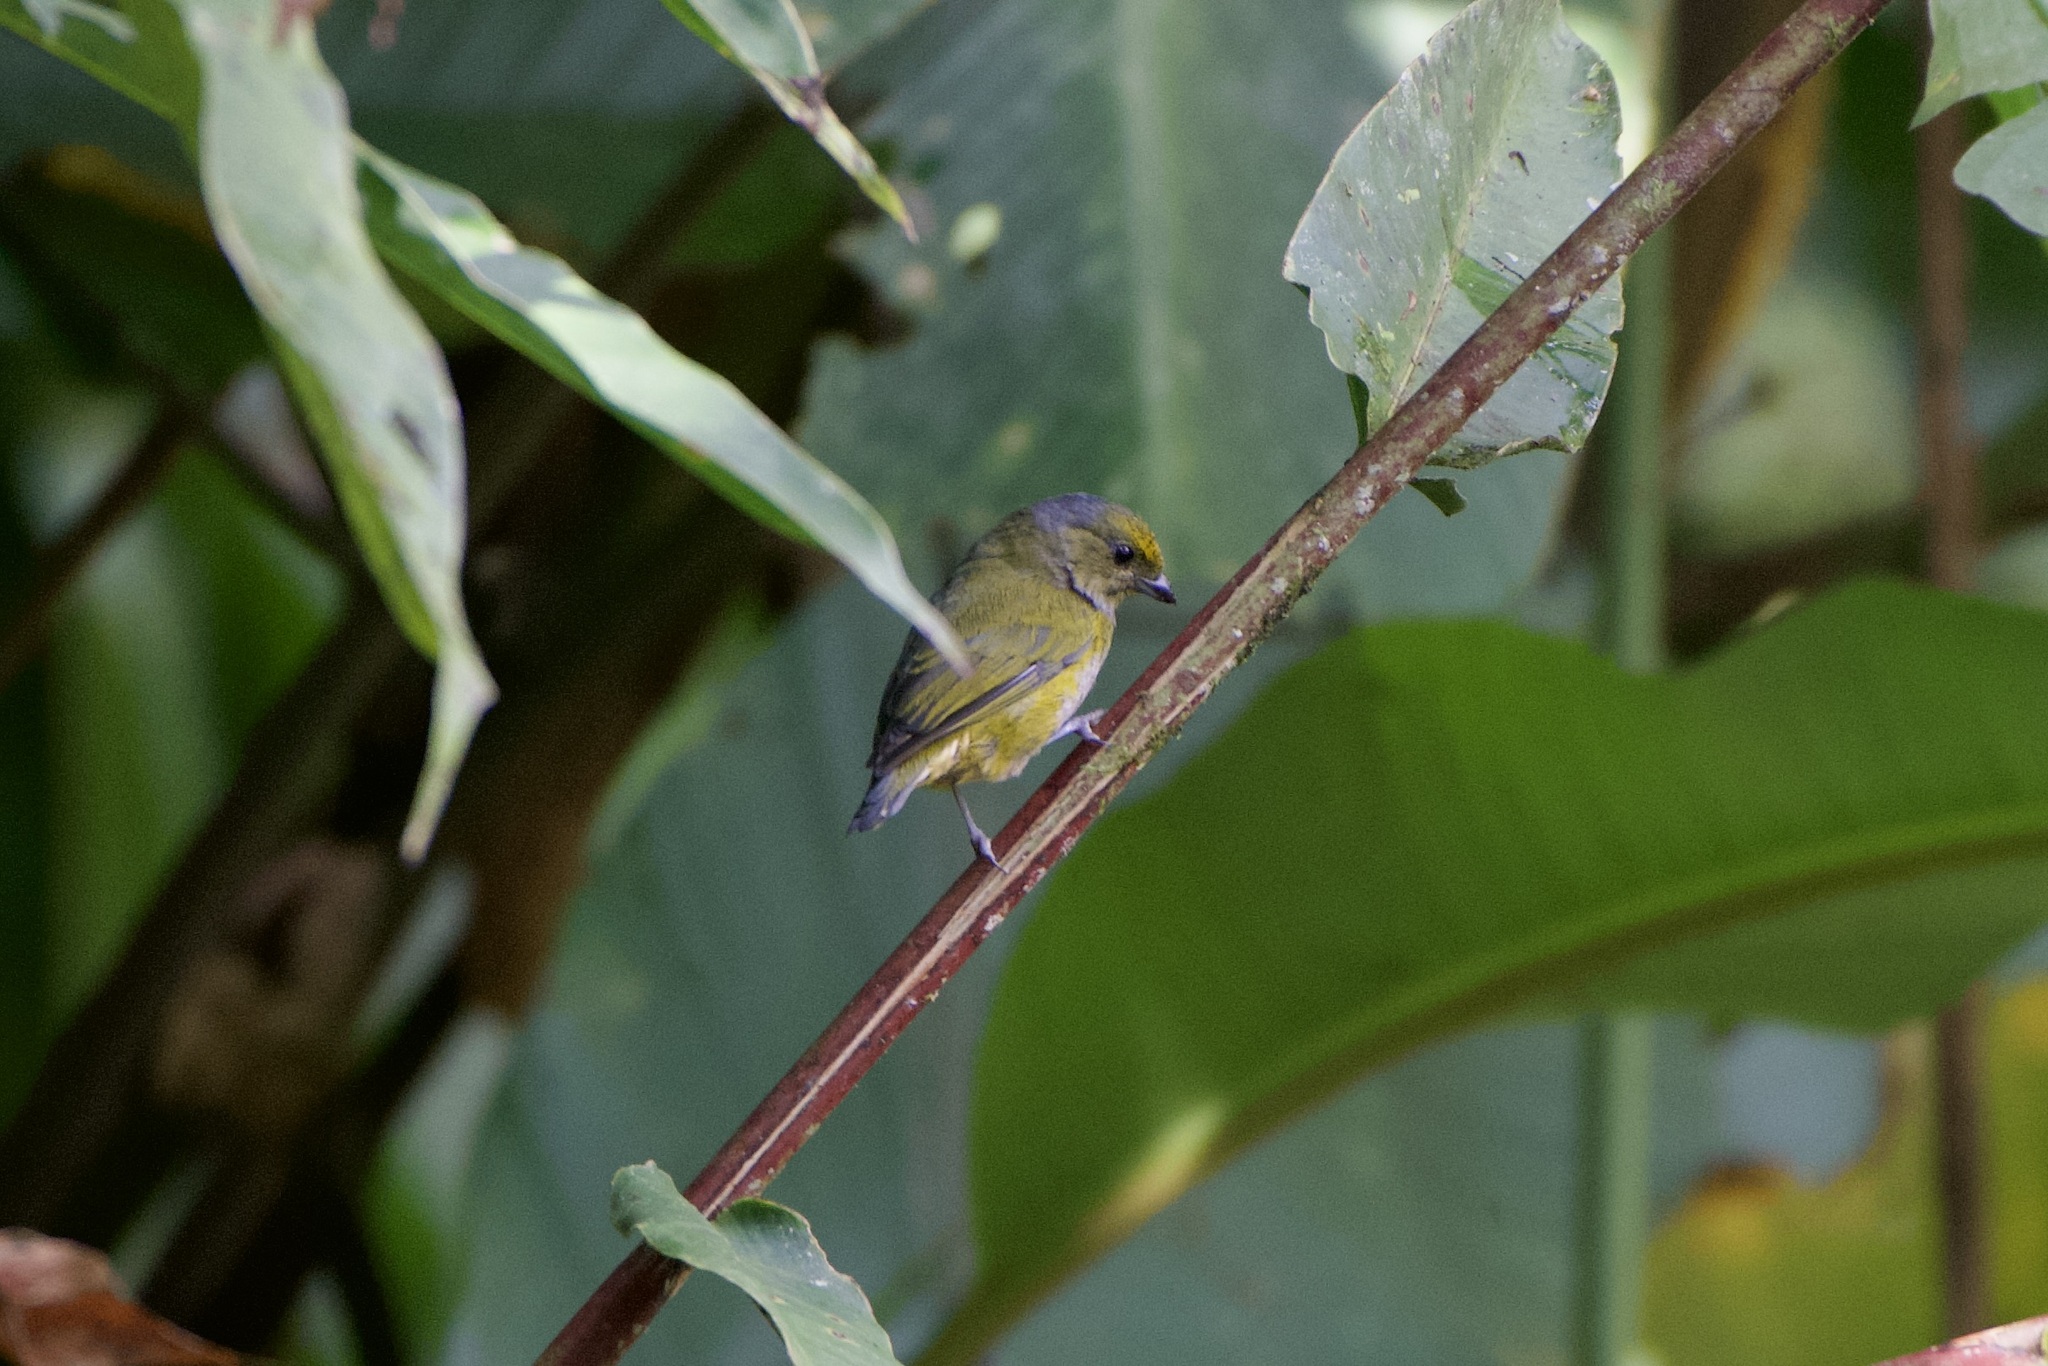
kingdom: Animalia
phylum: Chordata
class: Aves
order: Passeriformes
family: Fringillidae
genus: Euphonia
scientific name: Euphonia xanthogaster
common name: Orange-bellied euphonia
